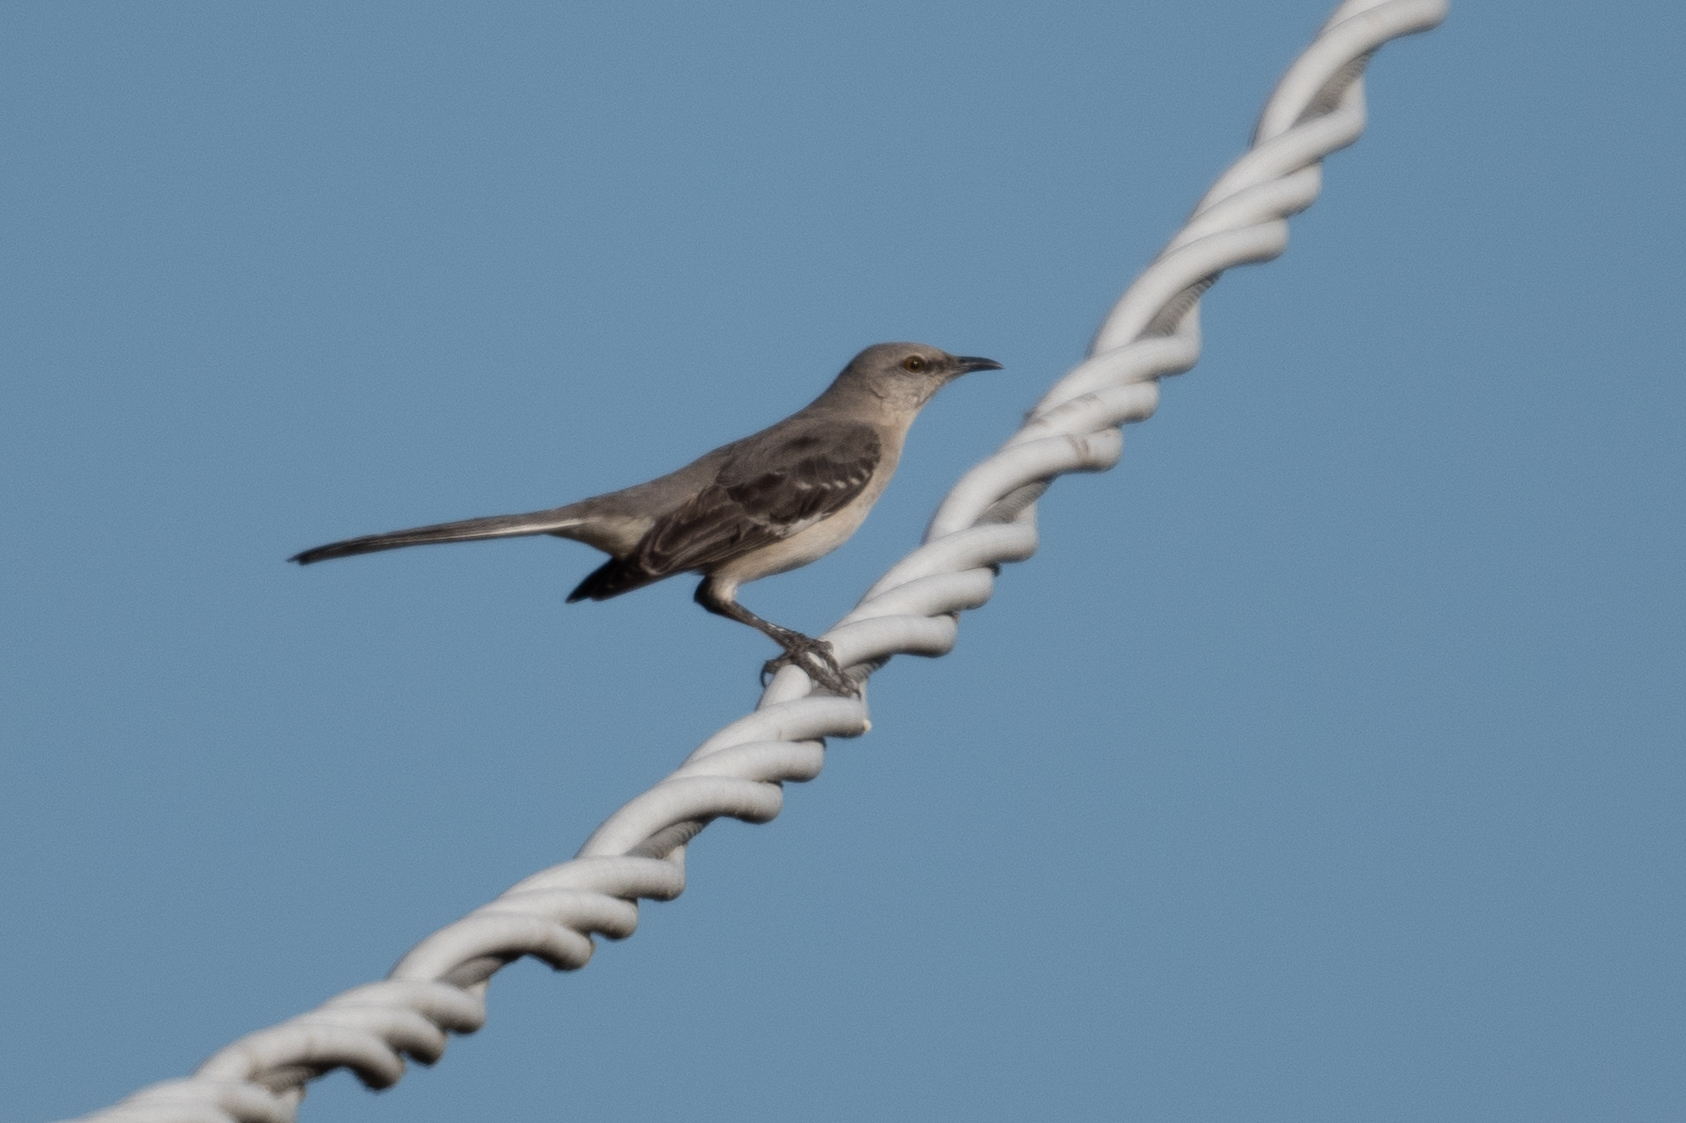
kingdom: Animalia
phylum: Chordata
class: Aves
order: Passeriformes
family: Mimidae
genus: Mimus
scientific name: Mimus polyglottos
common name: Northern mockingbird
